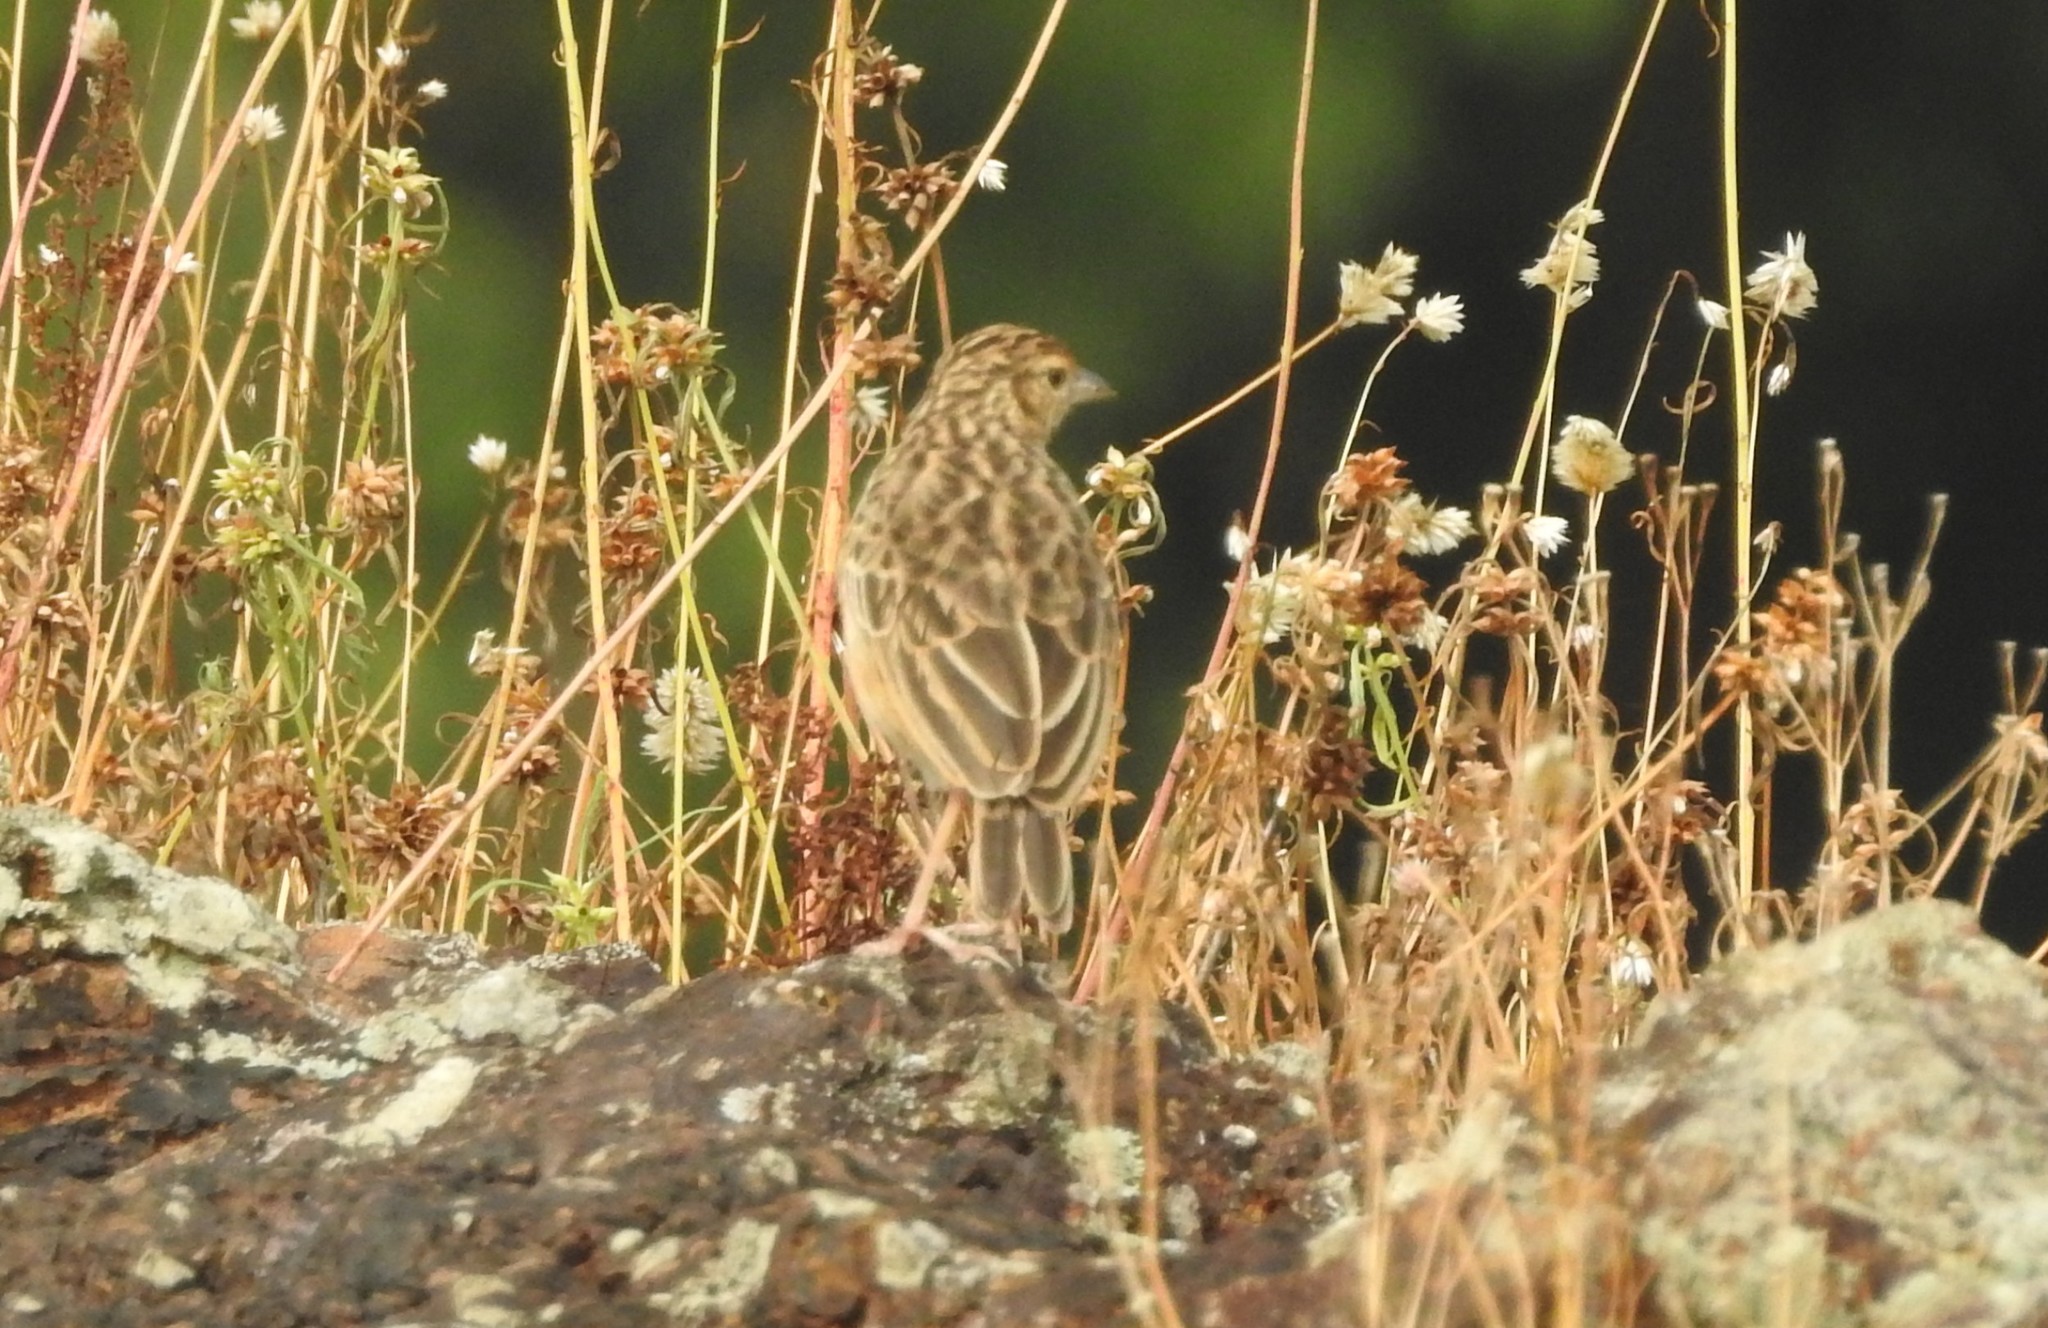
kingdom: Animalia
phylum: Chordata
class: Aves
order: Passeriformes
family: Alaudidae
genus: Mirafra
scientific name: Mirafra affinis
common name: Jerdon's bushlark
